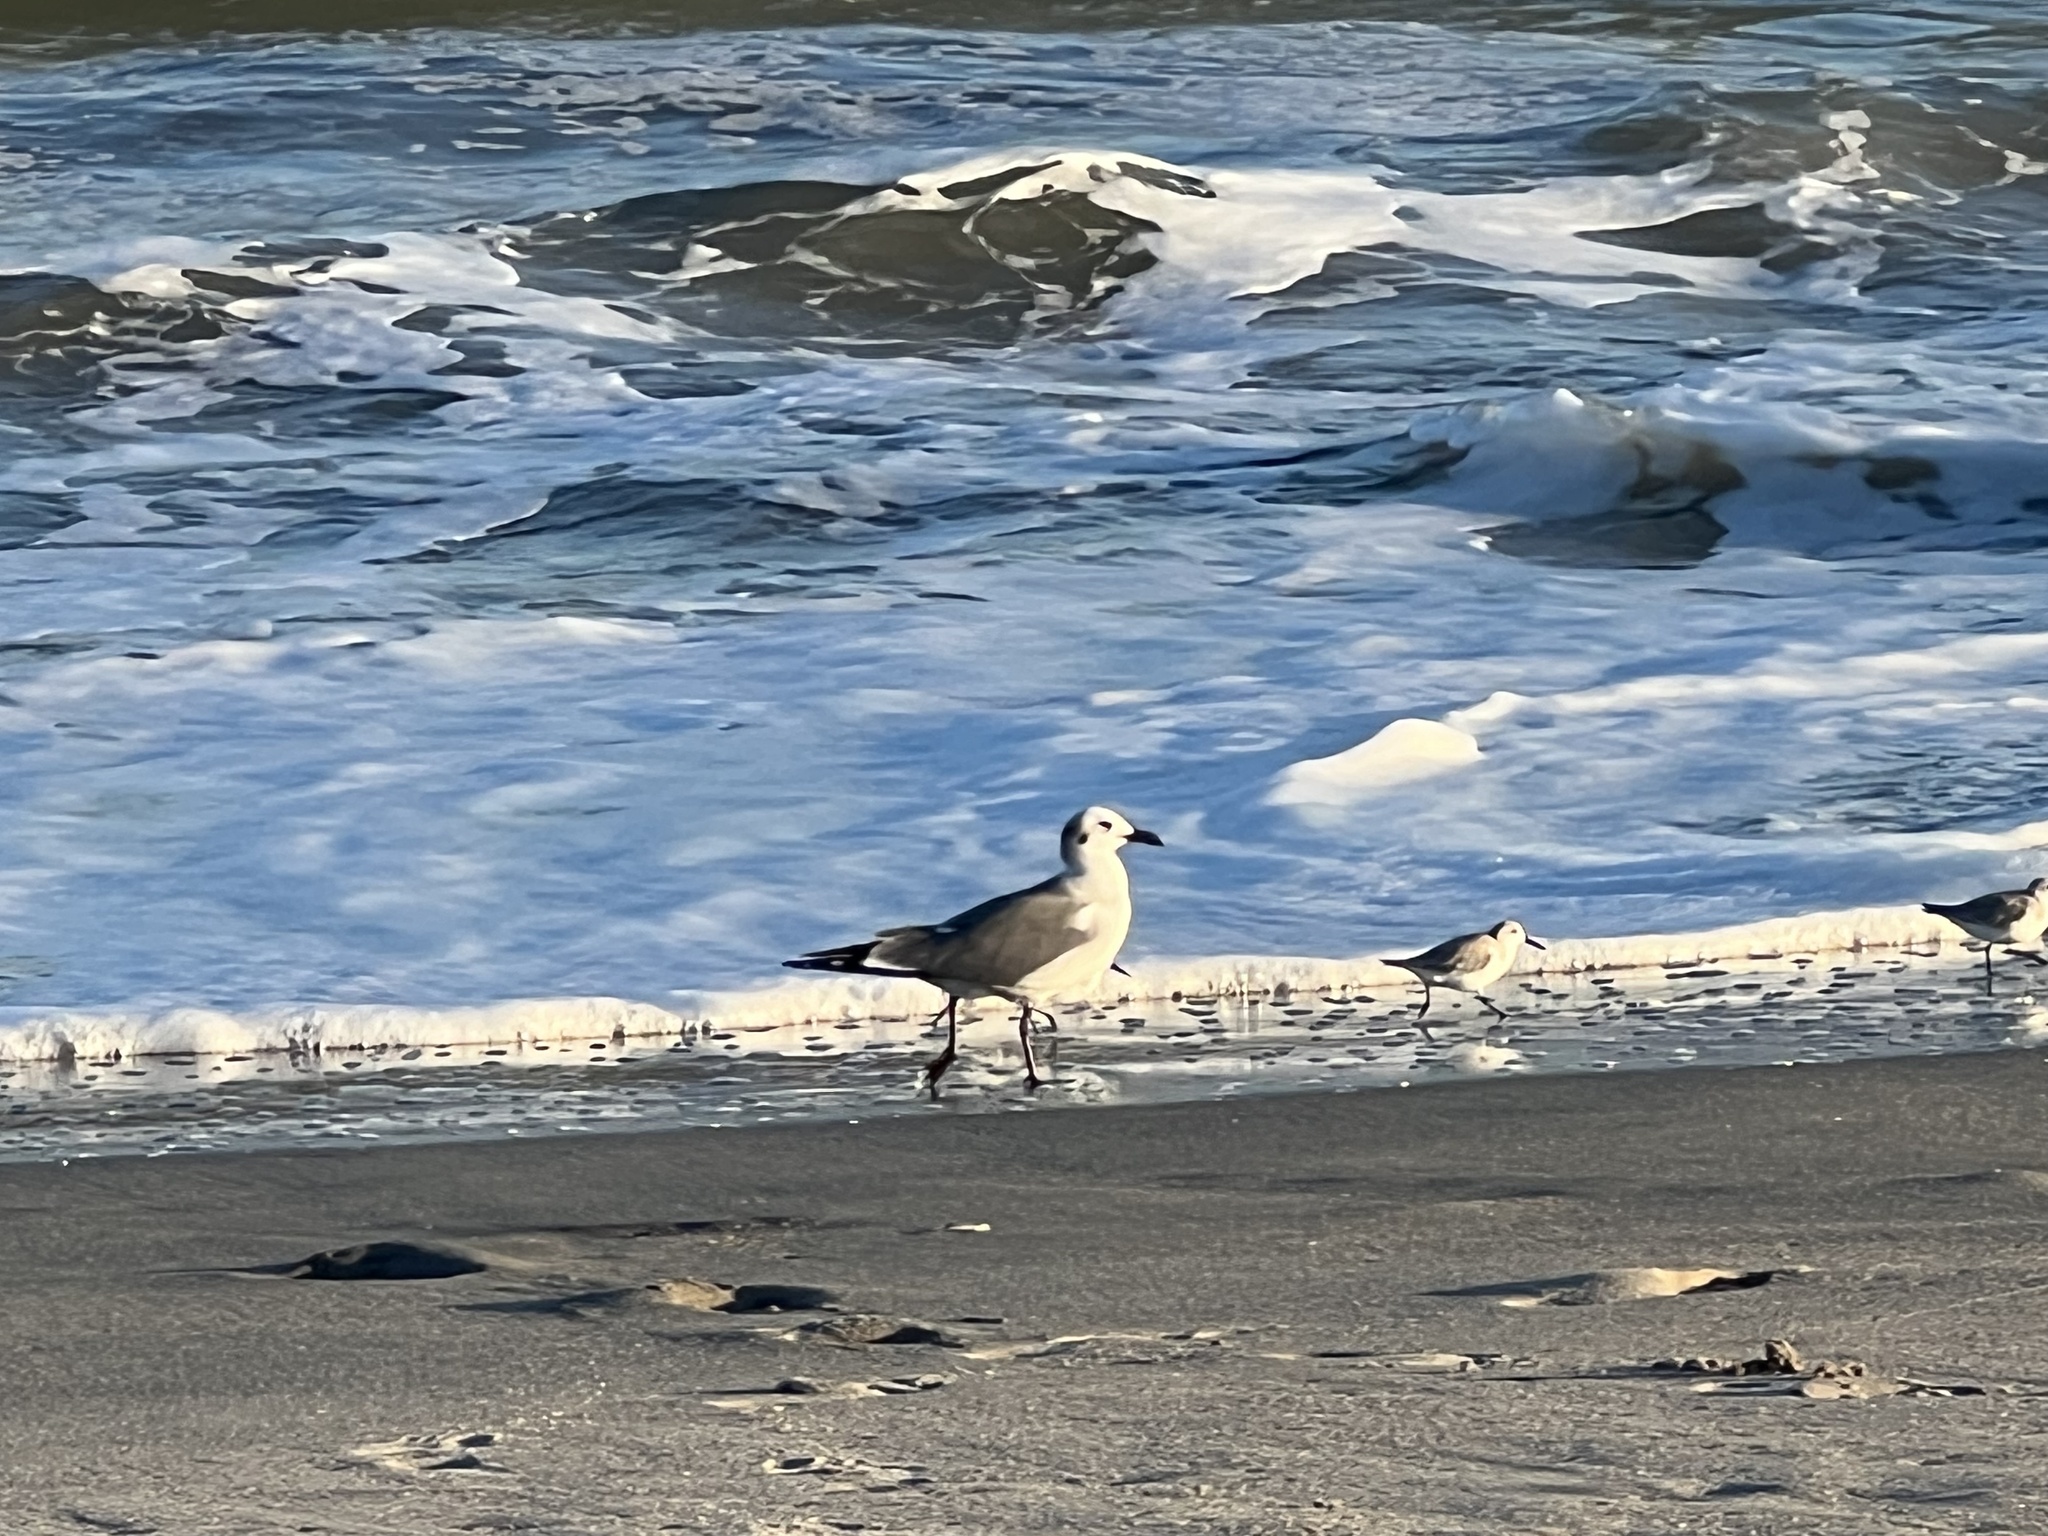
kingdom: Animalia
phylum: Chordata
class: Aves
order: Charadriiformes
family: Scolopacidae
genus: Calidris
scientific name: Calidris alba
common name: Sanderling
